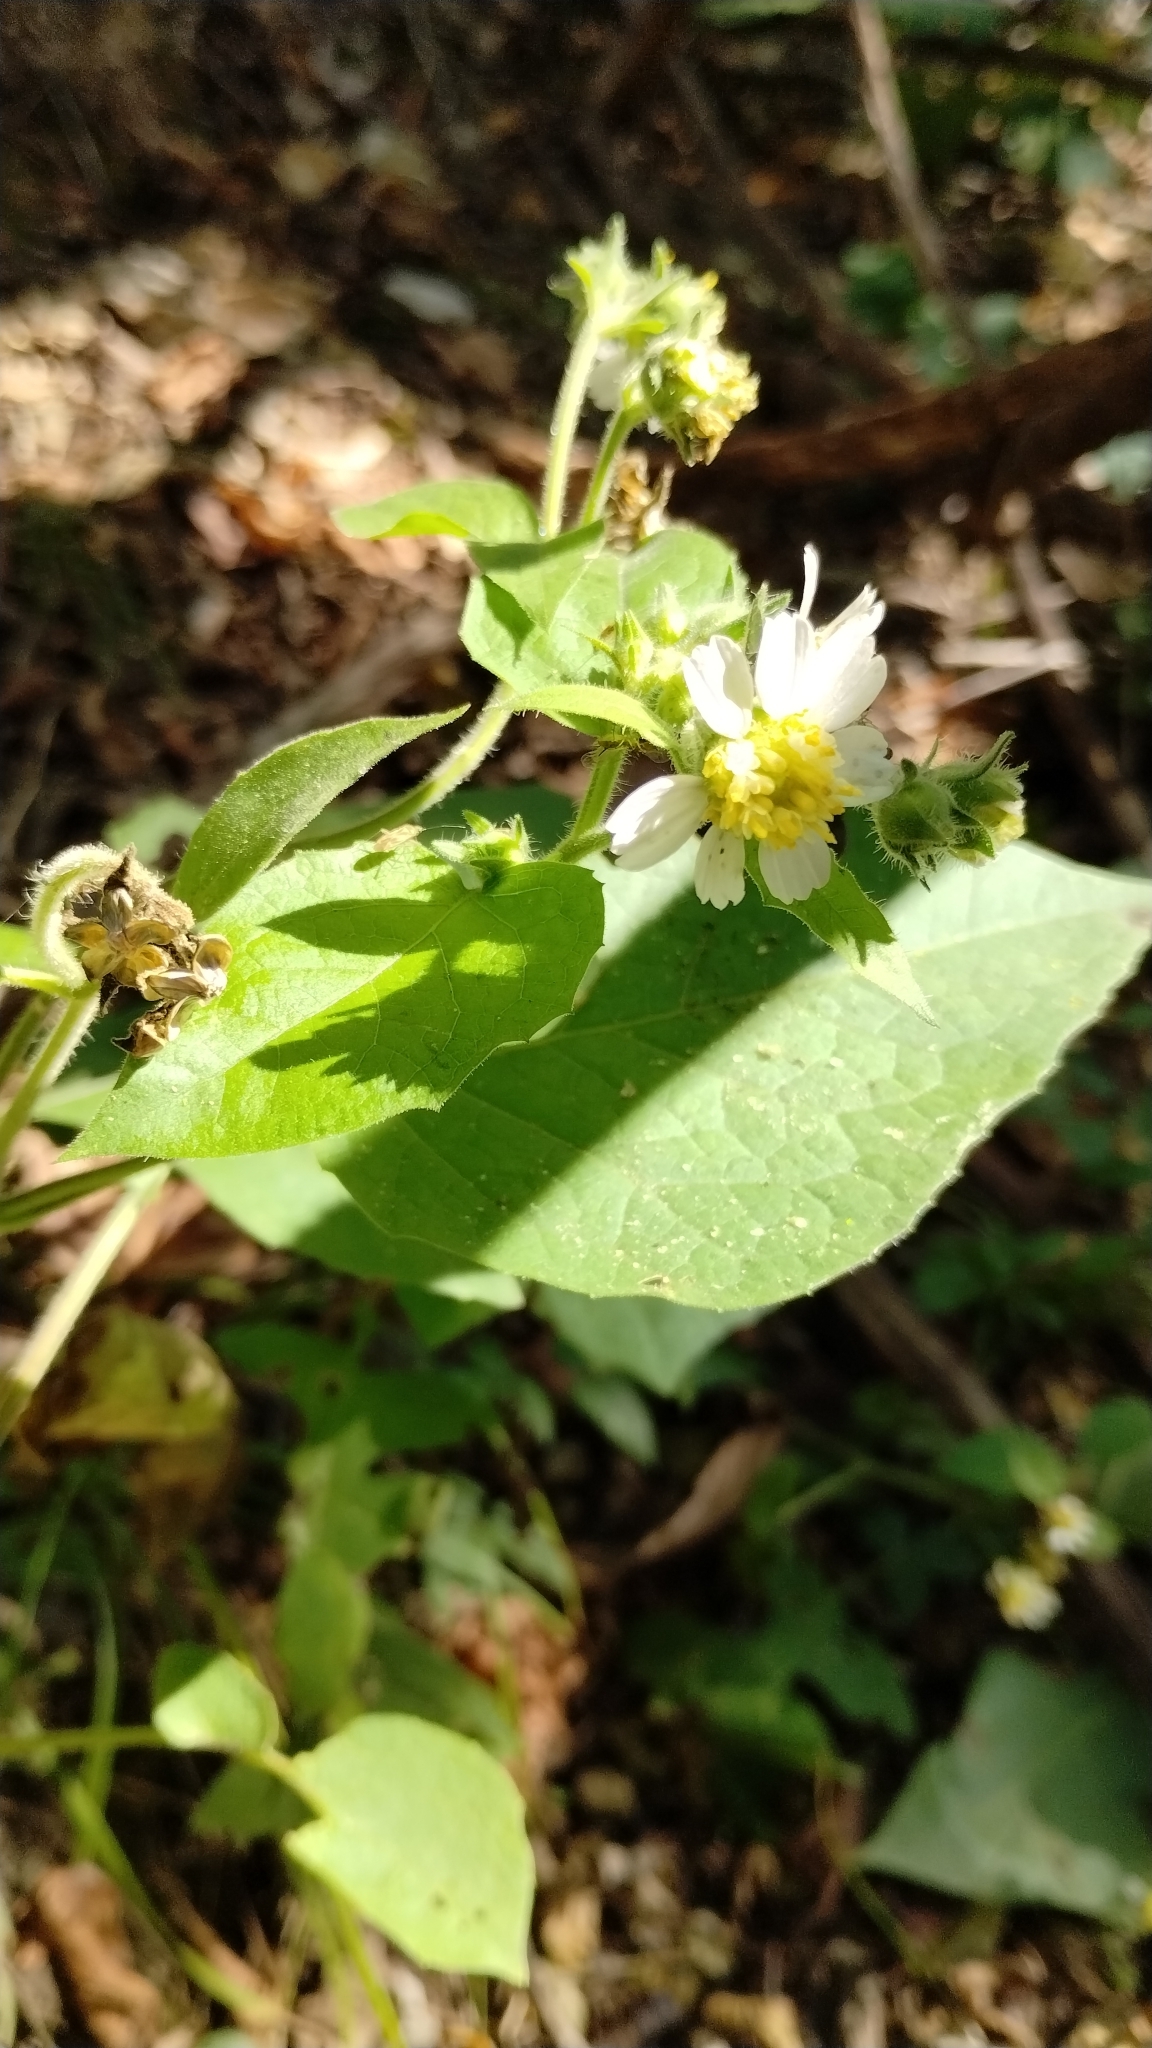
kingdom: Plantae
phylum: Tracheophyta
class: Magnoliopsida
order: Asterales
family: Asteraceae
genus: Polymnia
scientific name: Polymnia canadensis
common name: Pale-flowered leafcup
